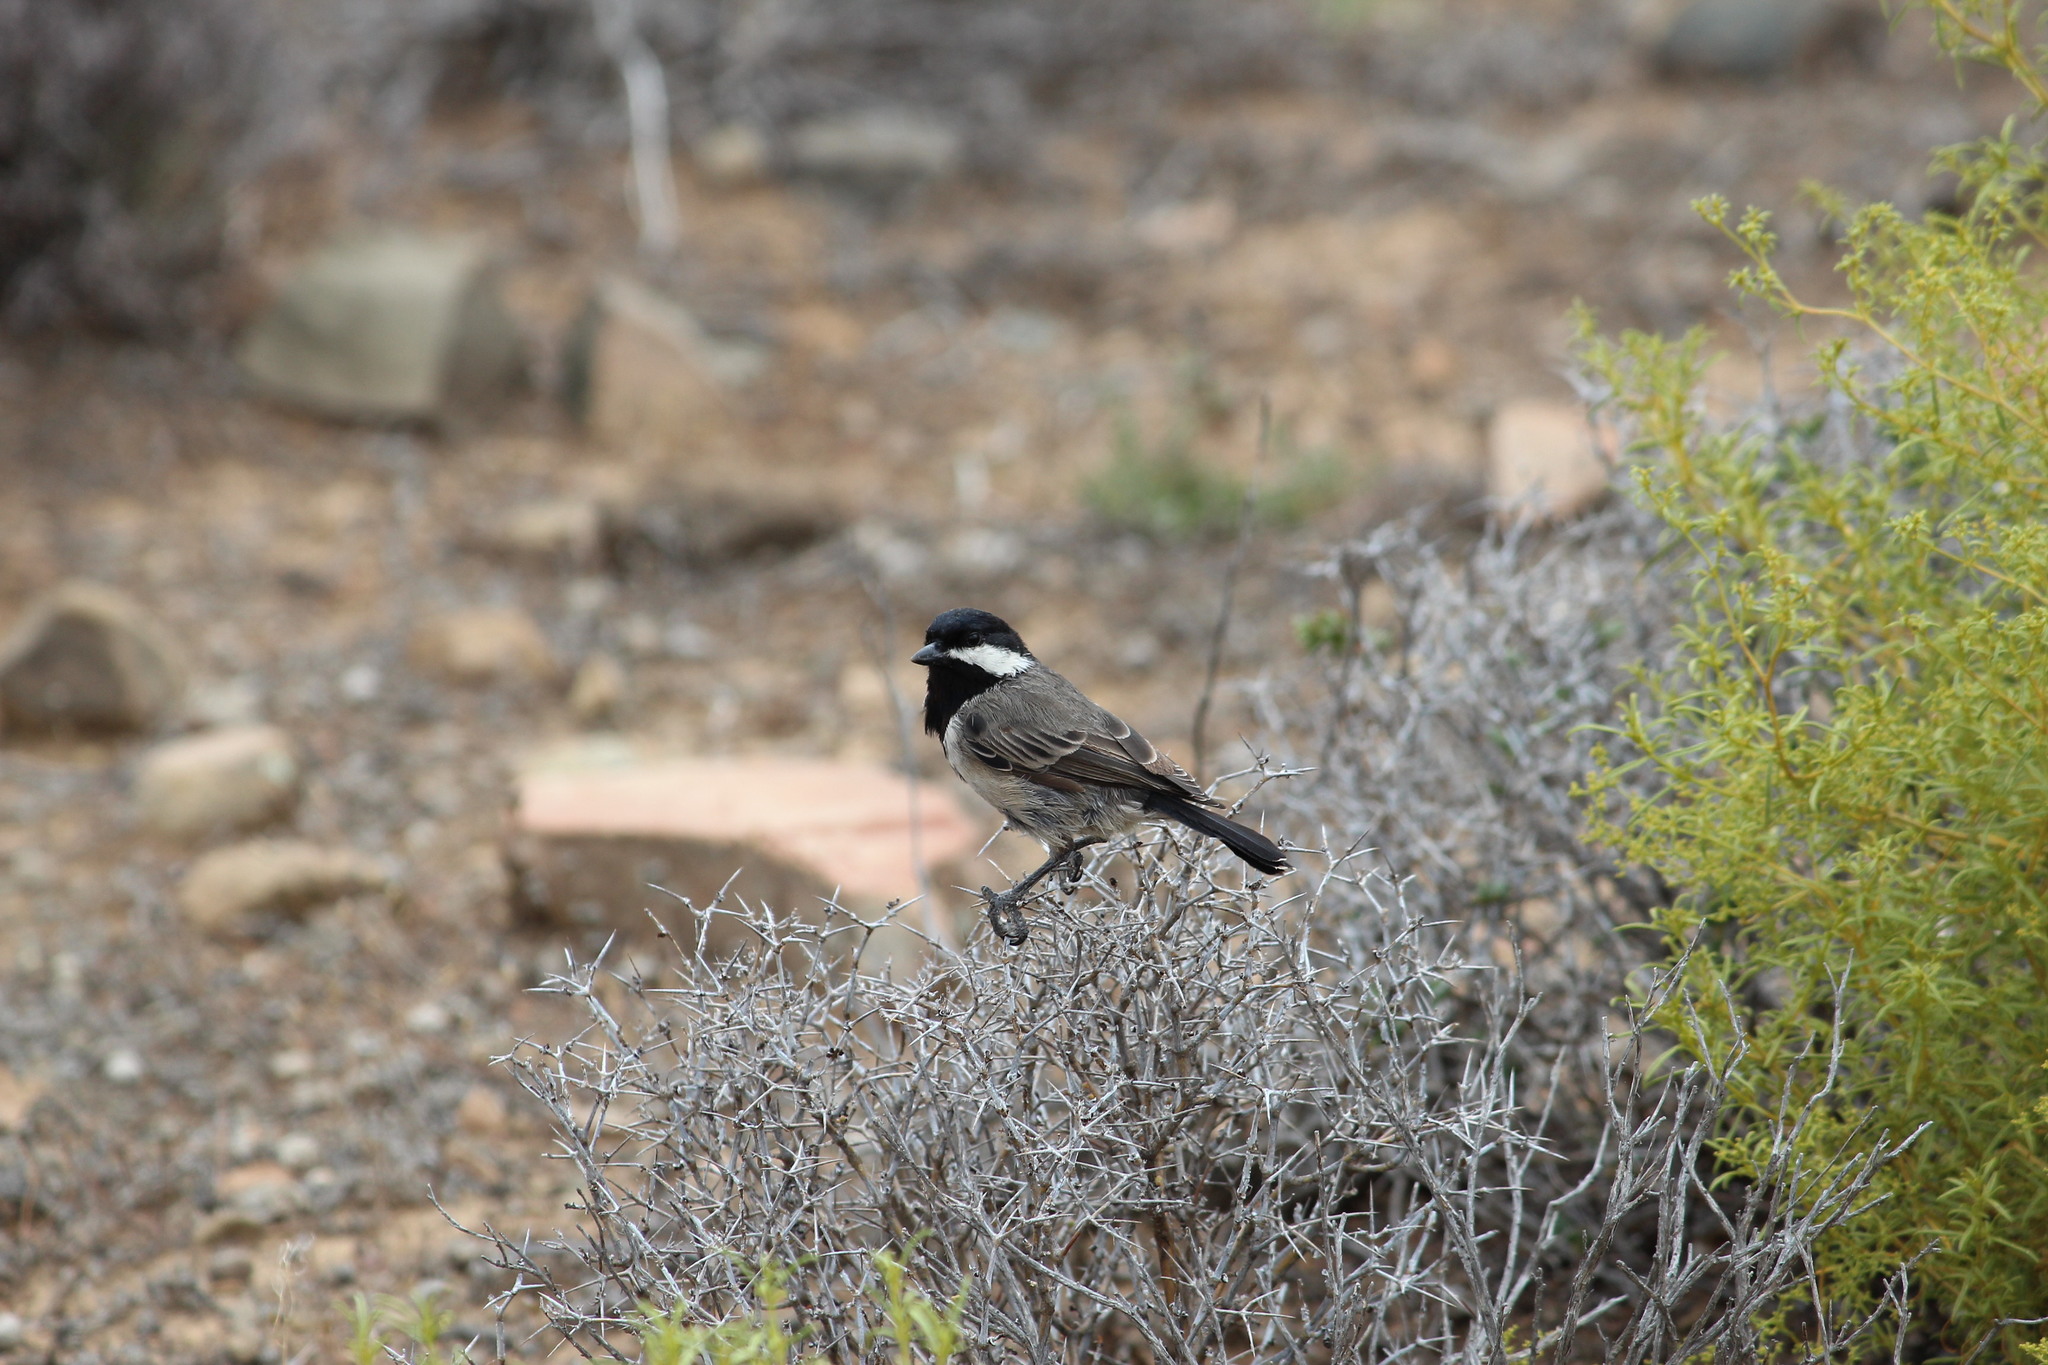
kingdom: Animalia
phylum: Chordata
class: Aves
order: Passeriformes
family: Paridae
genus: Parus
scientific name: Parus afer
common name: Grey tit
